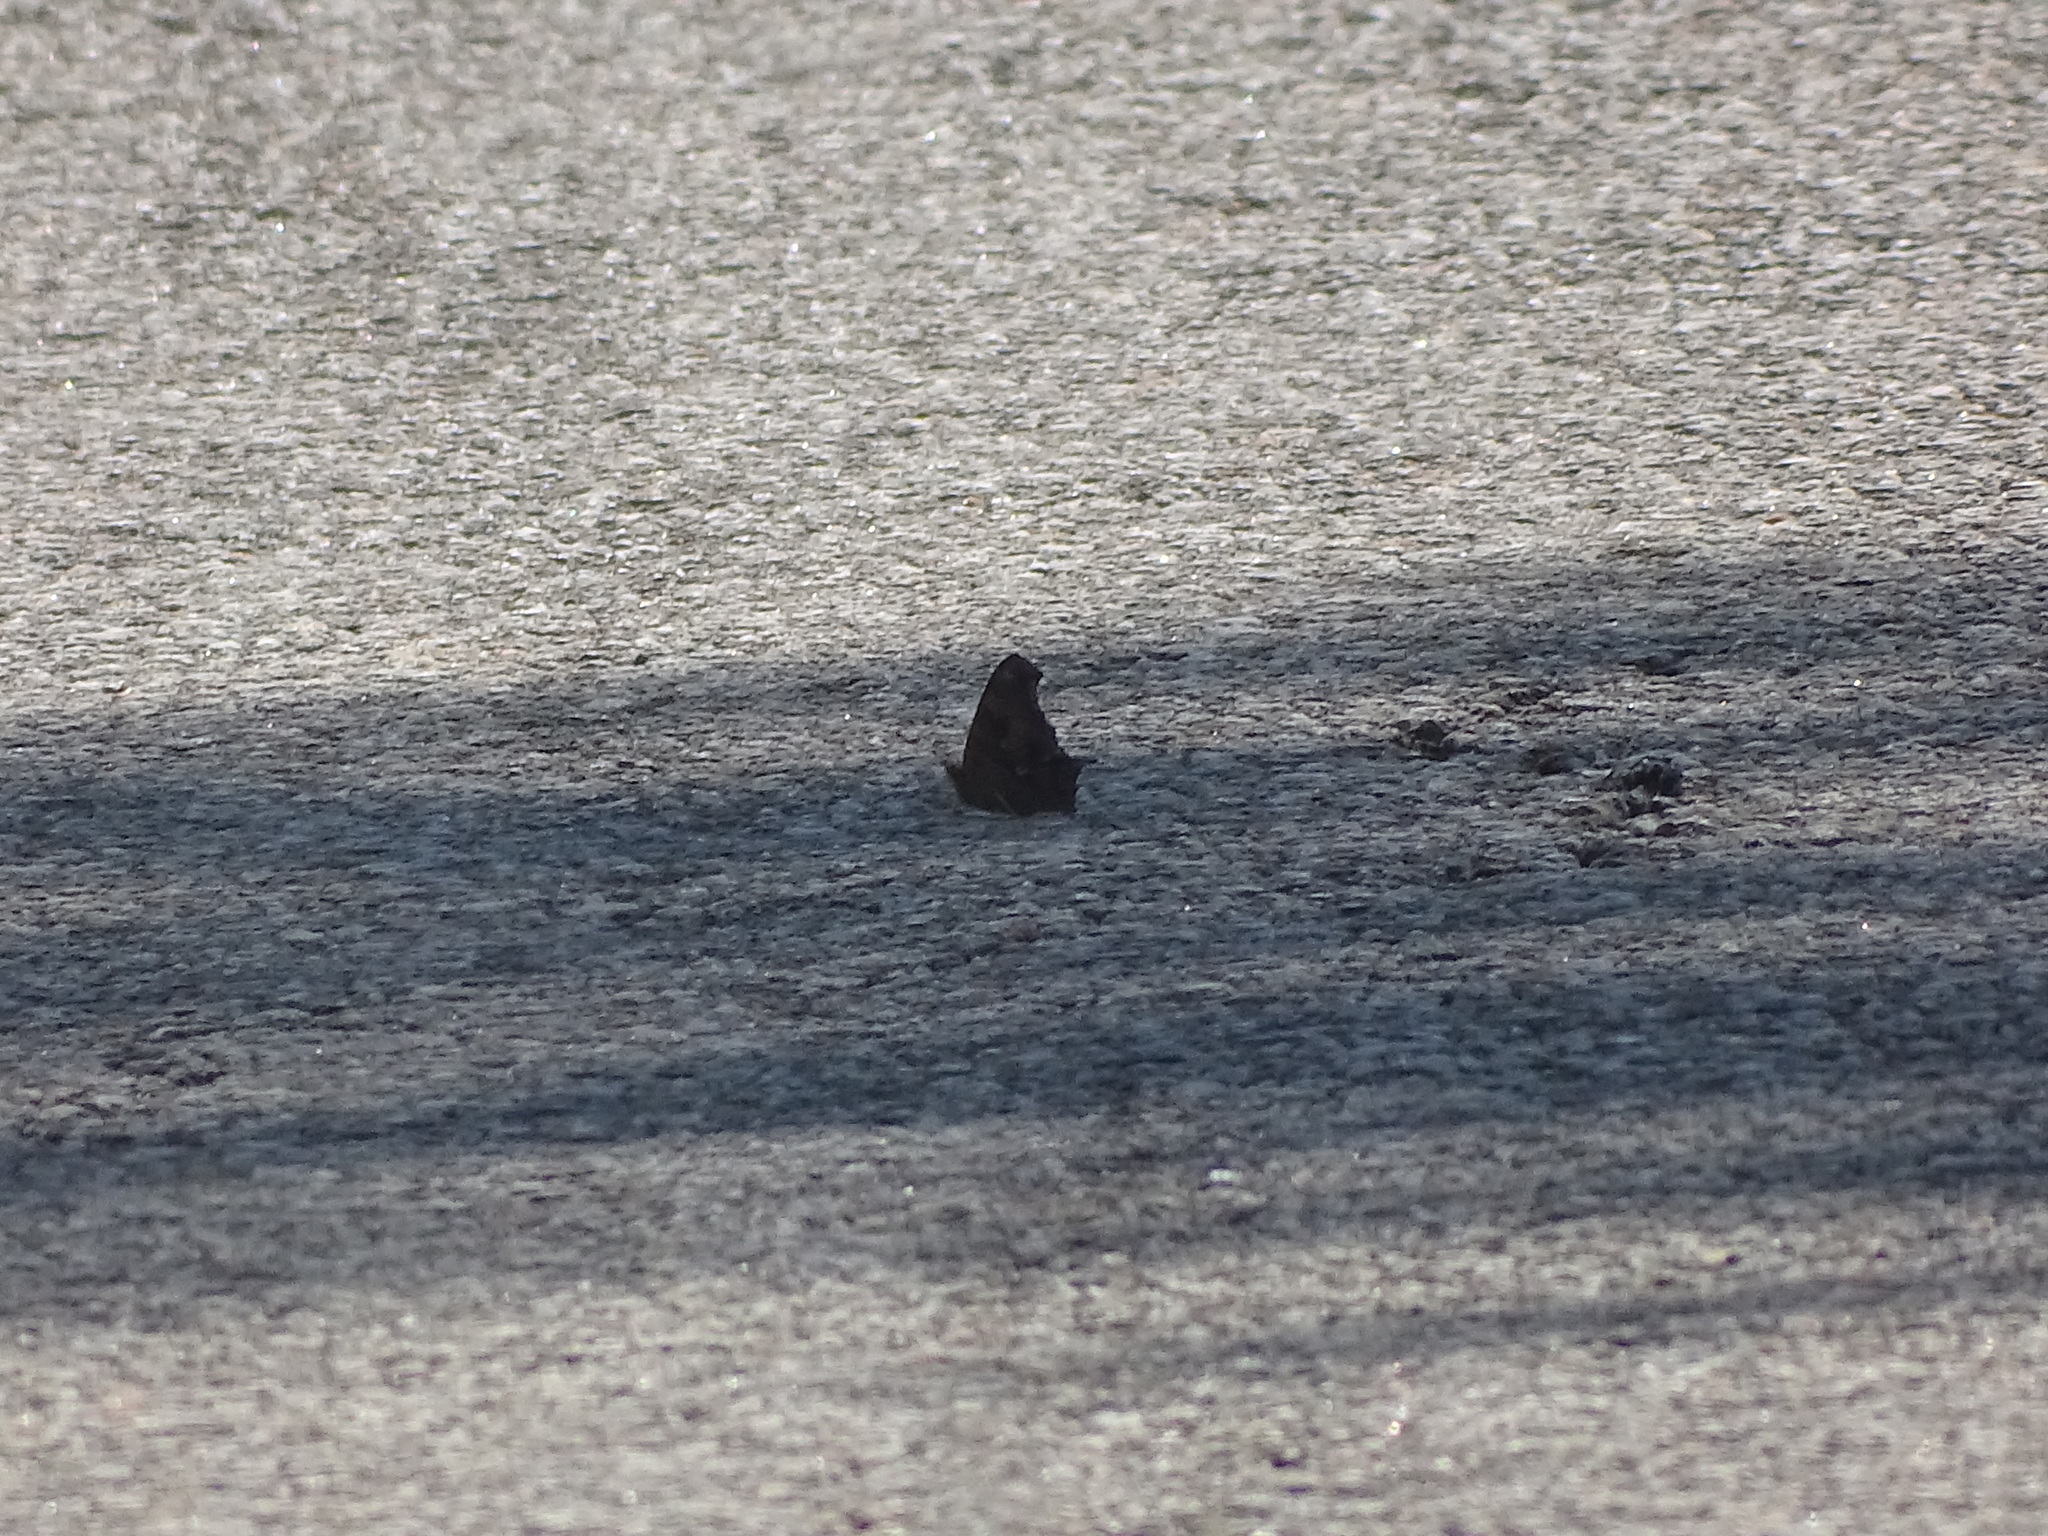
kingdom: Animalia
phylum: Arthropoda
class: Insecta
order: Lepidoptera
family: Nymphalidae
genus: Polygonia
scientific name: Polygonia interrogationis
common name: Question mark
